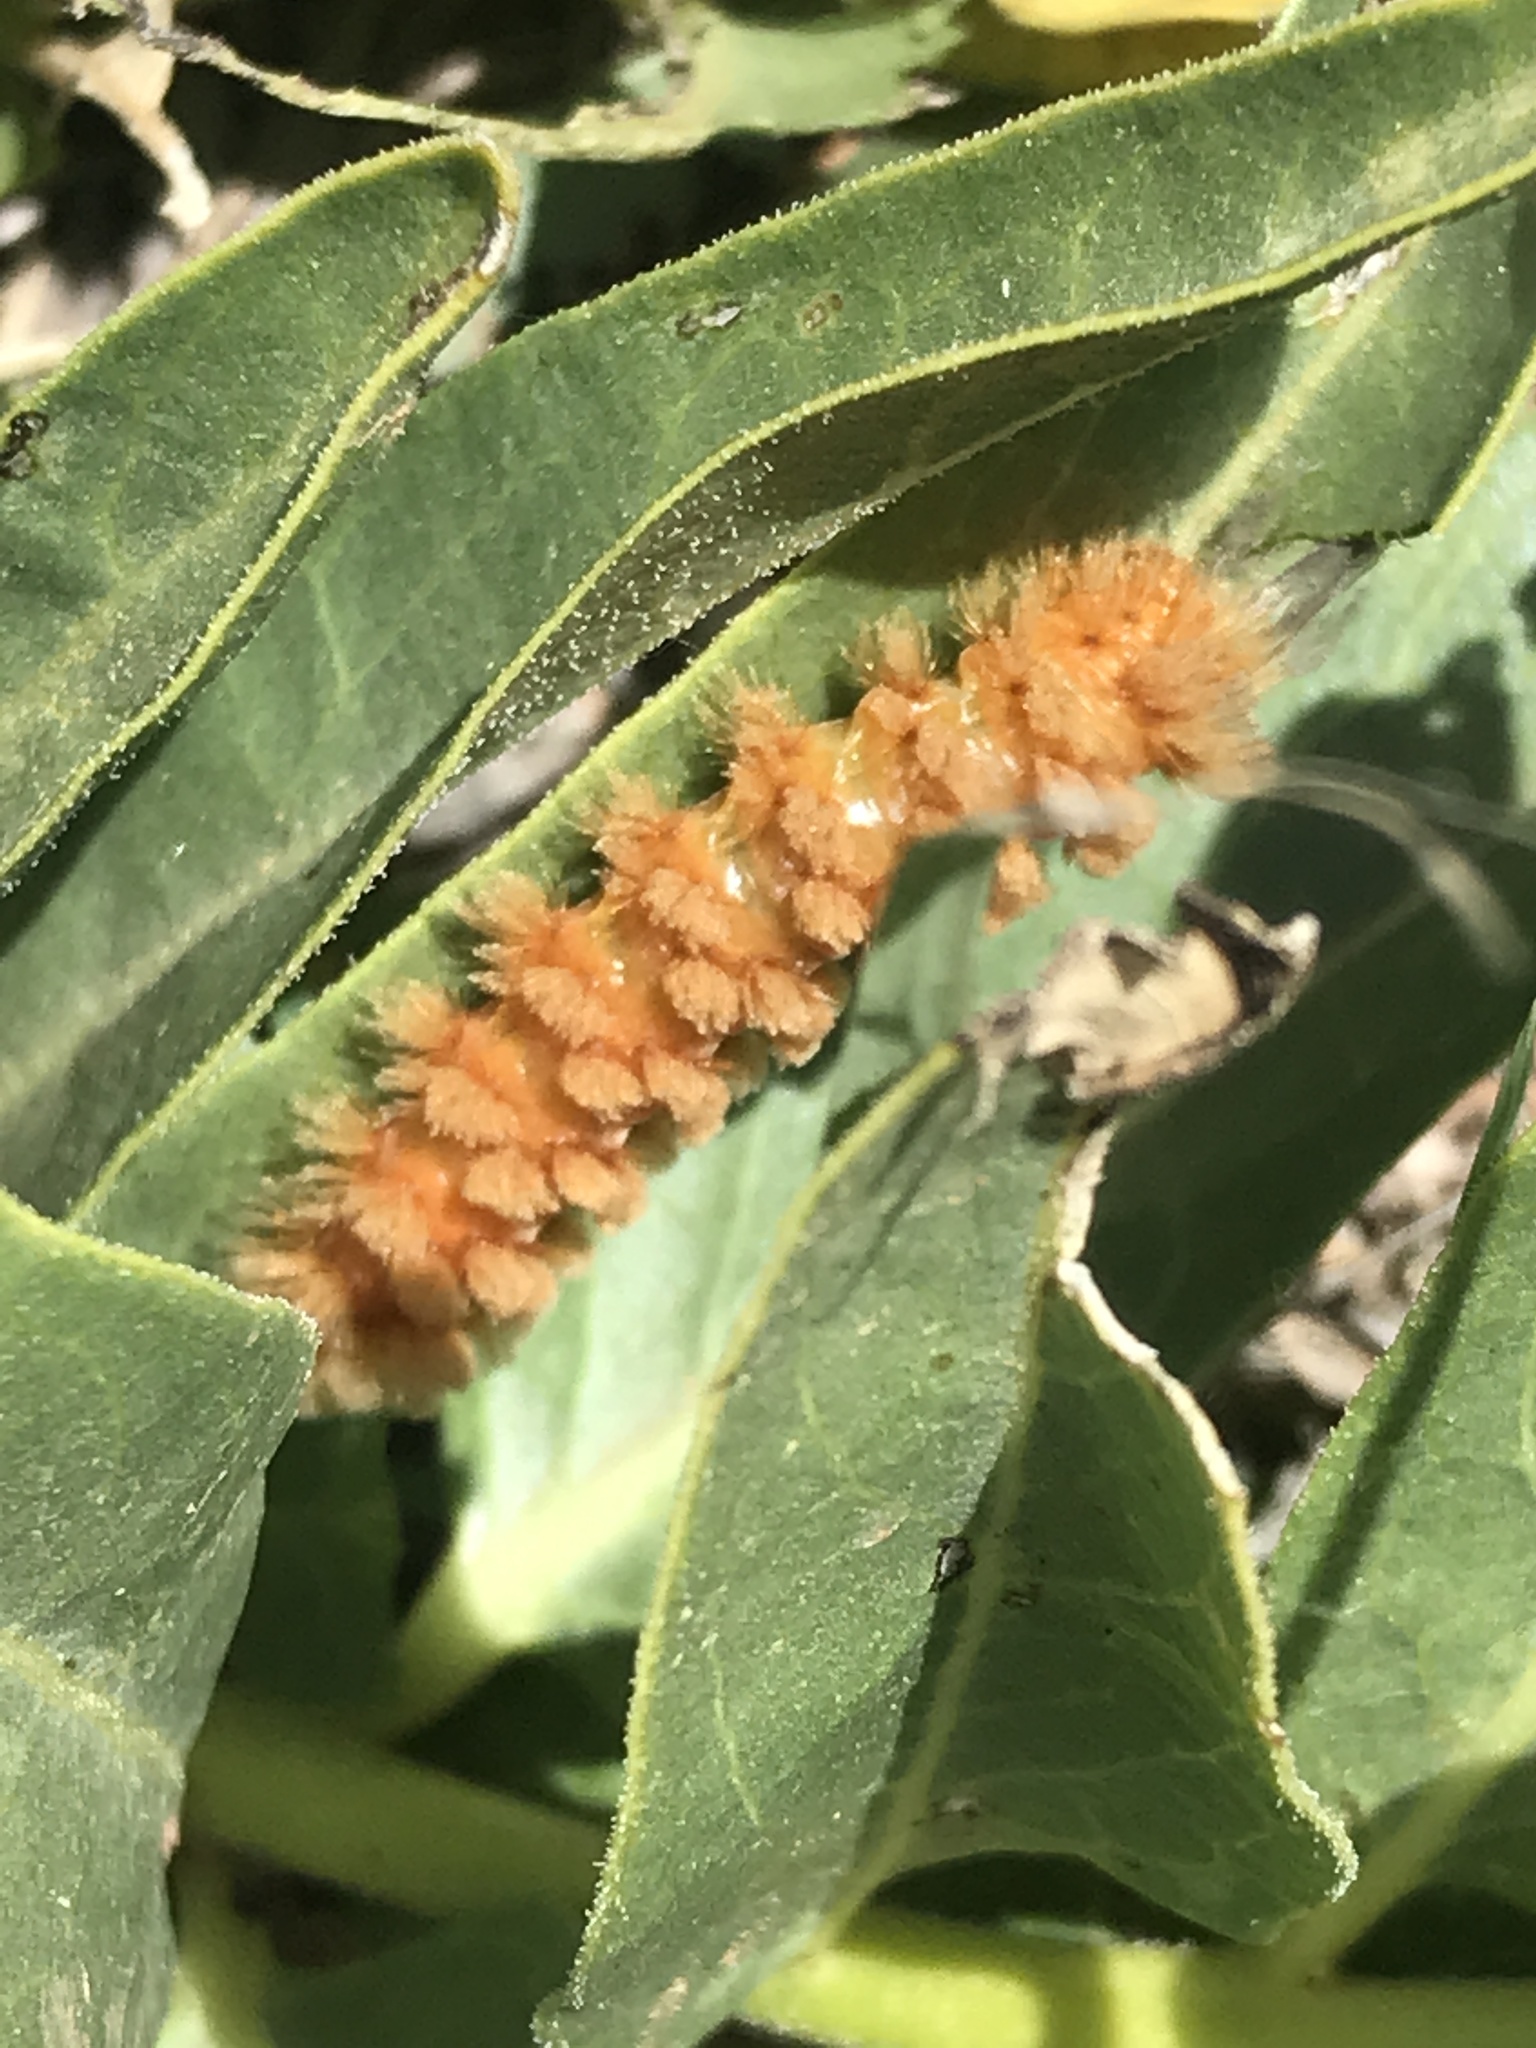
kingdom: Animalia
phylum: Arthropoda
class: Insecta
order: Lepidoptera
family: Erebidae
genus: Cycnia
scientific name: Cycnia collaris
